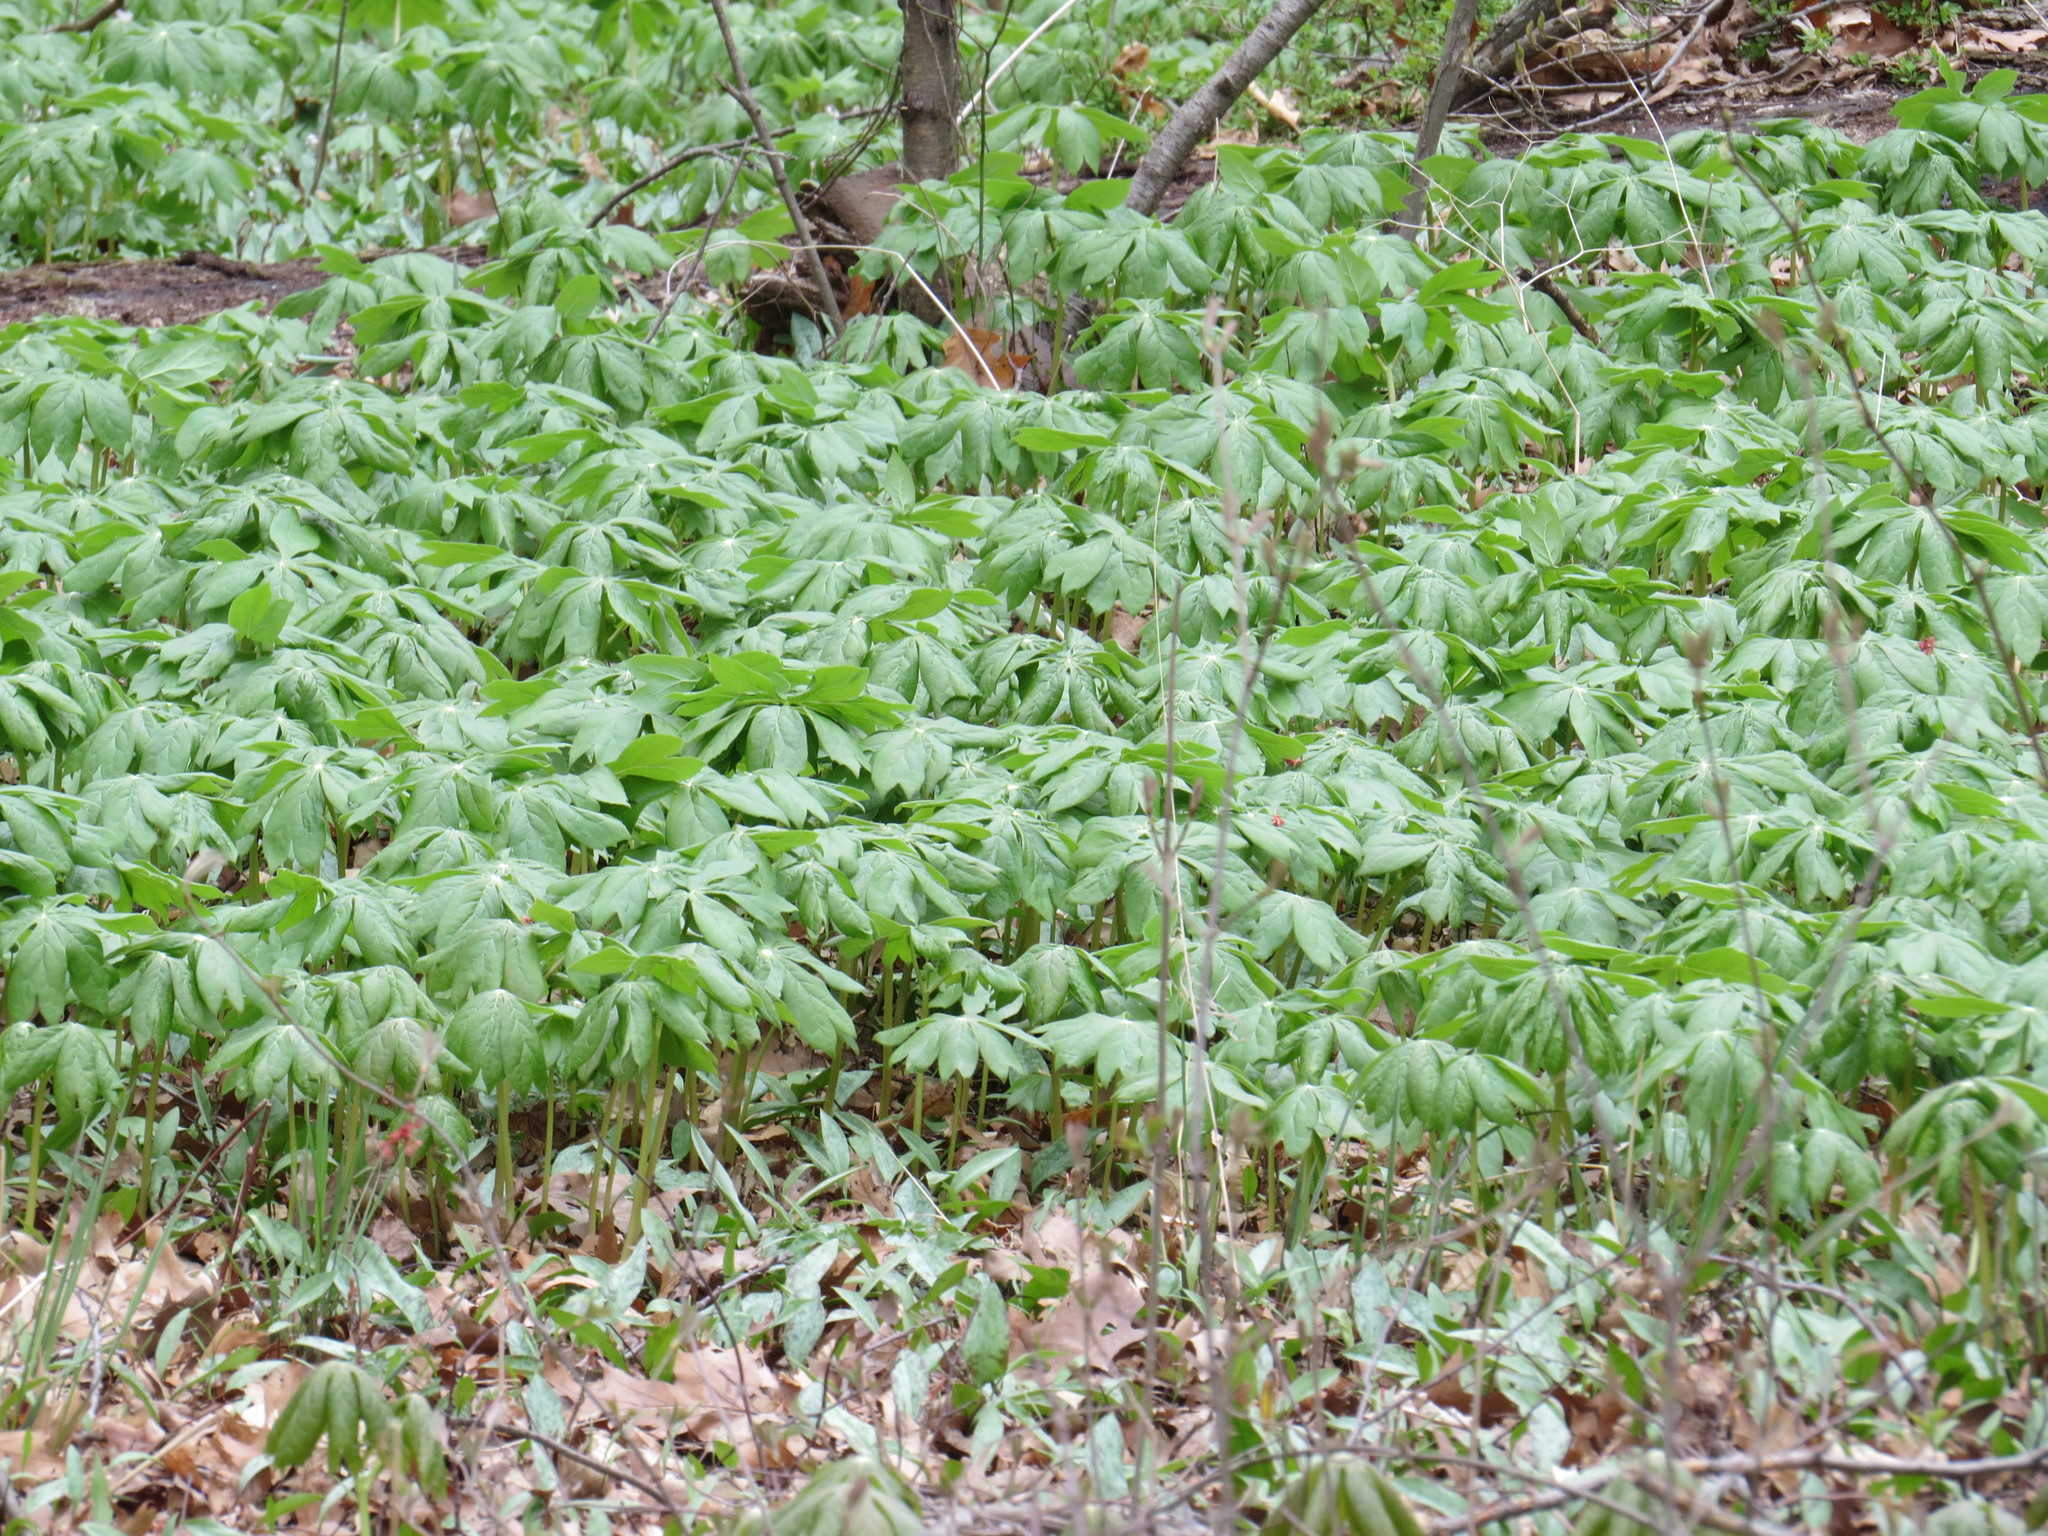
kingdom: Plantae
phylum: Tracheophyta
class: Magnoliopsida
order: Ranunculales
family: Berberidaceae
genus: Podophyllum
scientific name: Podophyllum peltatum
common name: Wild mandrake
